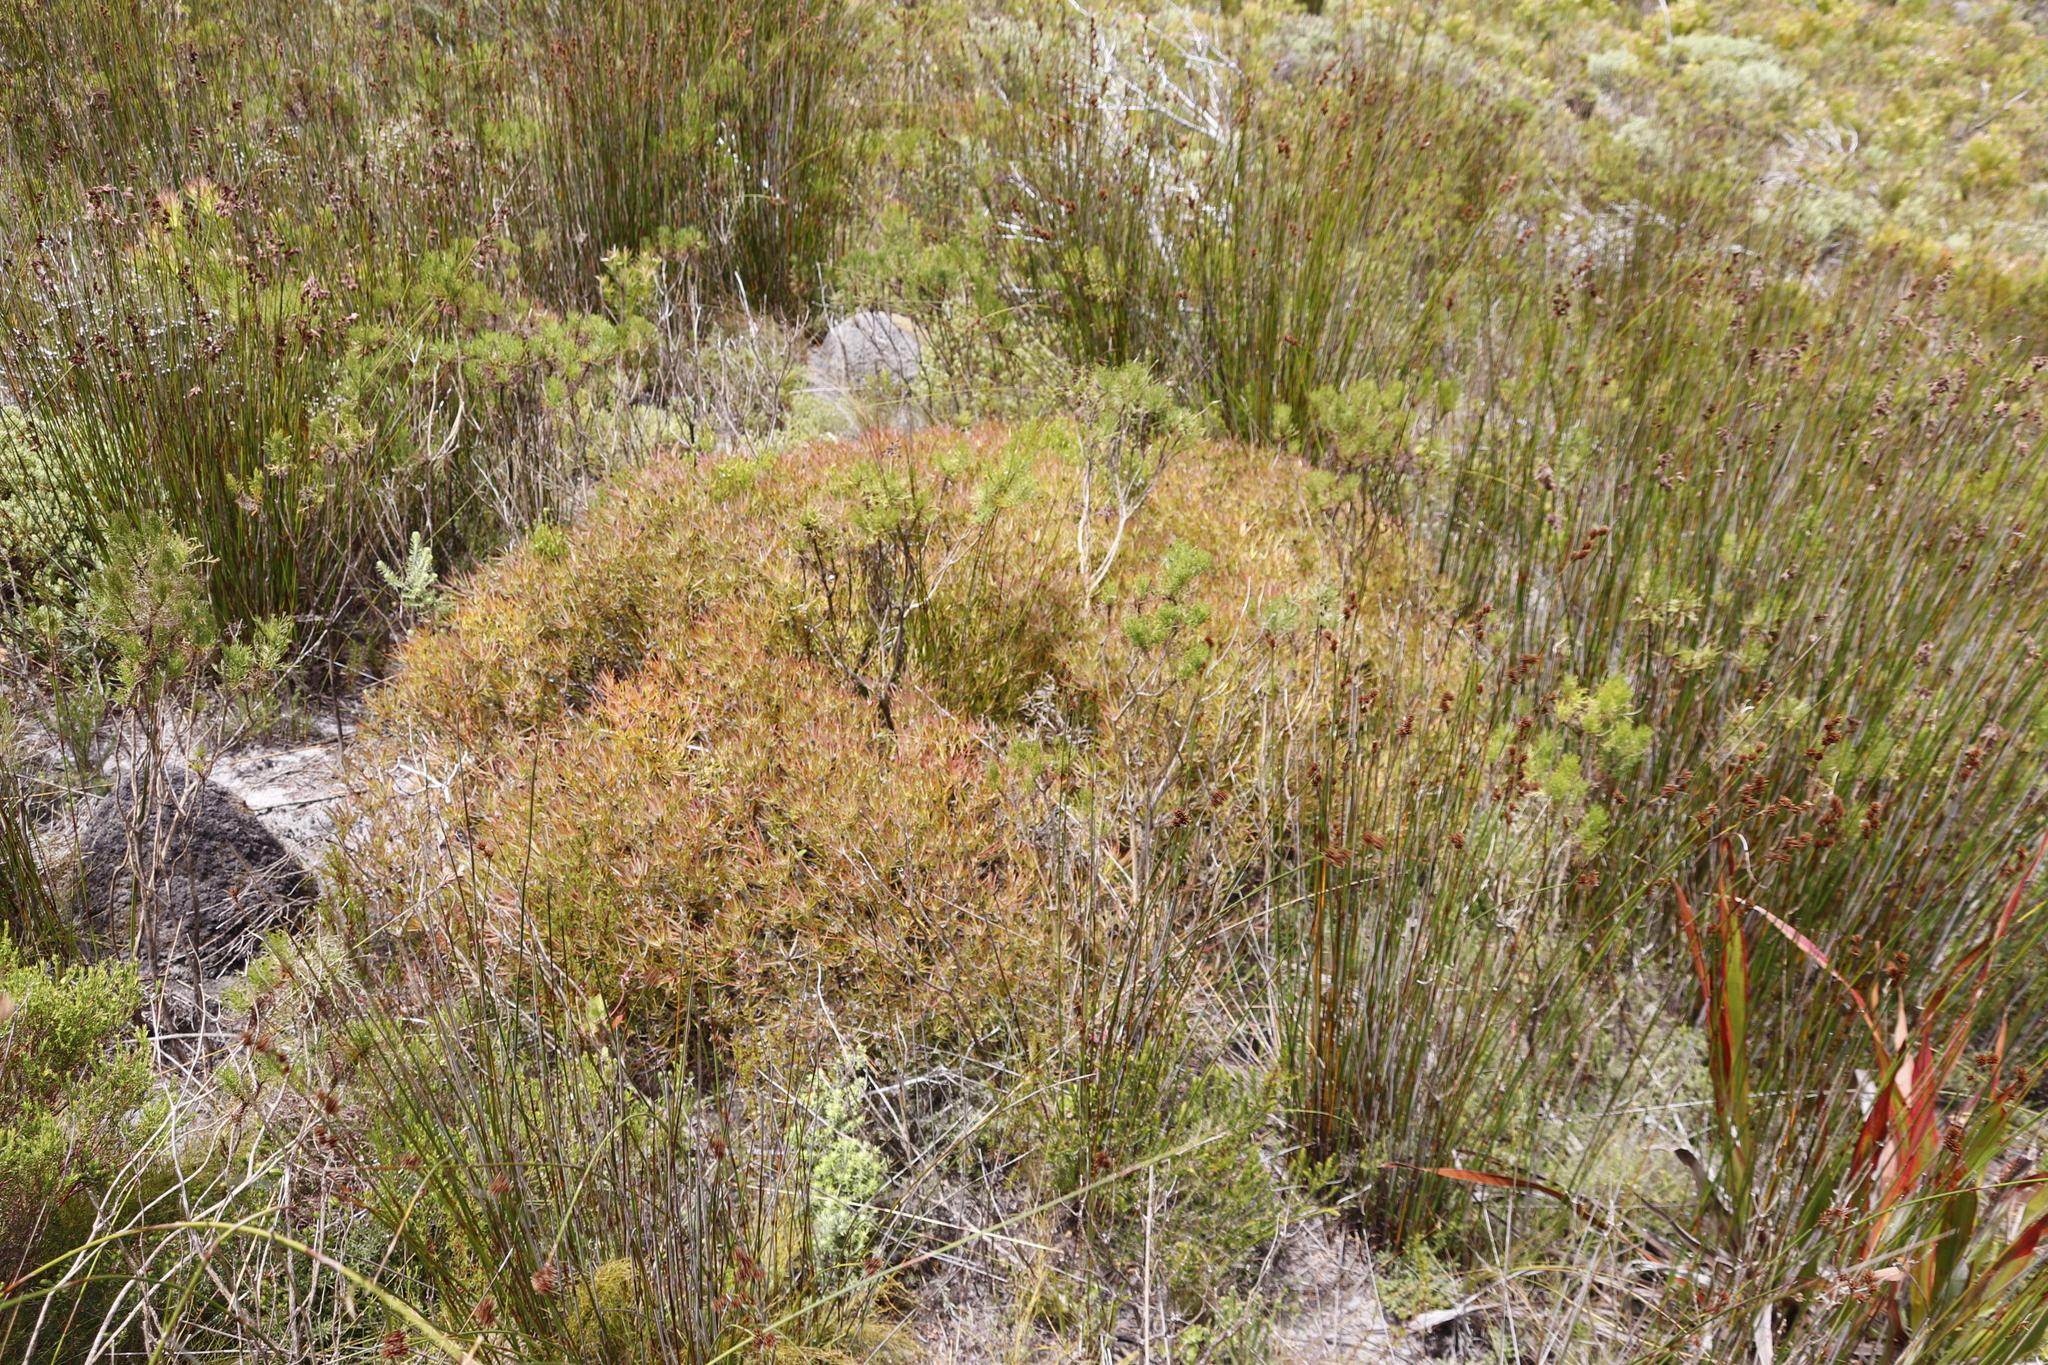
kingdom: Plantae
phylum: Tracheophyta
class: Magnoliopsida
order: Proteales
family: Proteaceae
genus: Leucadendron
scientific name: Leucadendron salignum
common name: Common sunshine conebush
